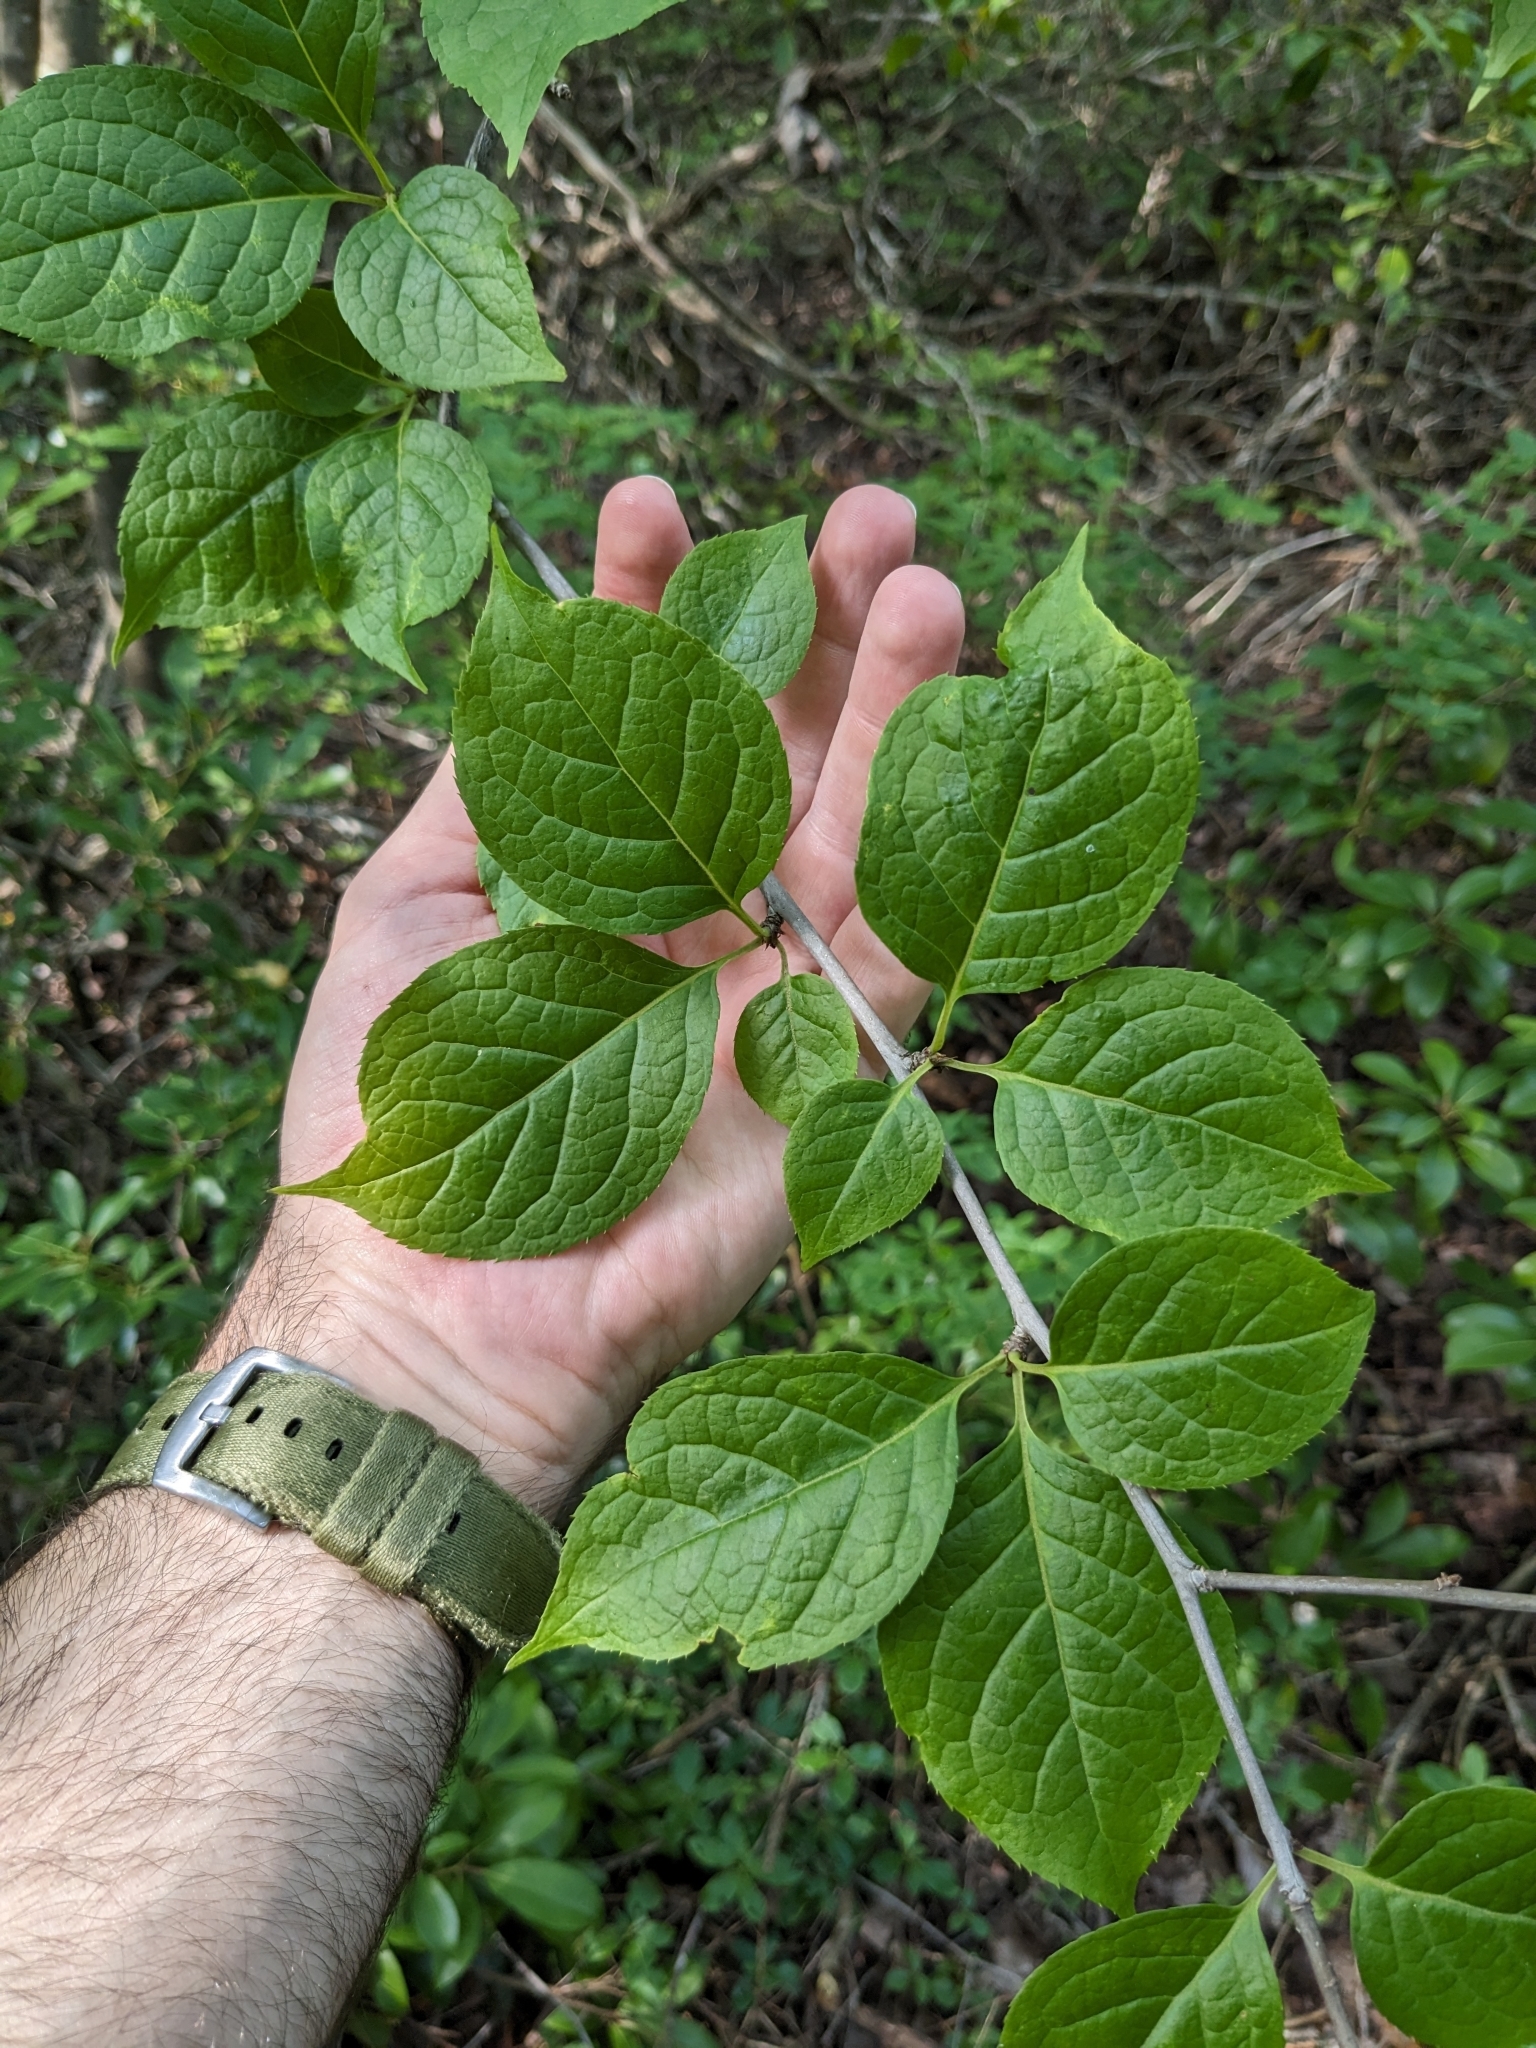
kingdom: Plantae
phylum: Tracheophyta
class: Magnoliopsida
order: Aquifoliales
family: Aquifoliaceae
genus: Ilex
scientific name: Ilex montana
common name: Mountain winterberry
